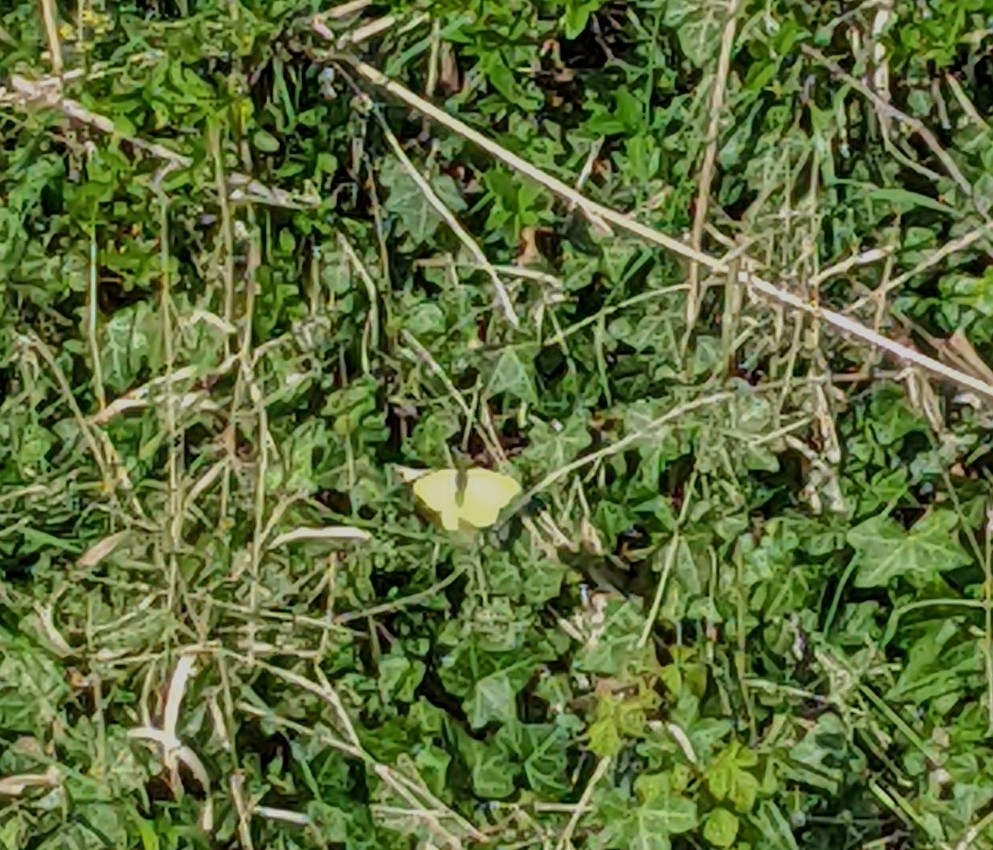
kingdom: Animalia
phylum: Arthropoda
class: Insecta
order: Lepidoptera
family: Pieridae
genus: Gonepteryx
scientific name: Gonepteryx rhamni
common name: Brimstone
